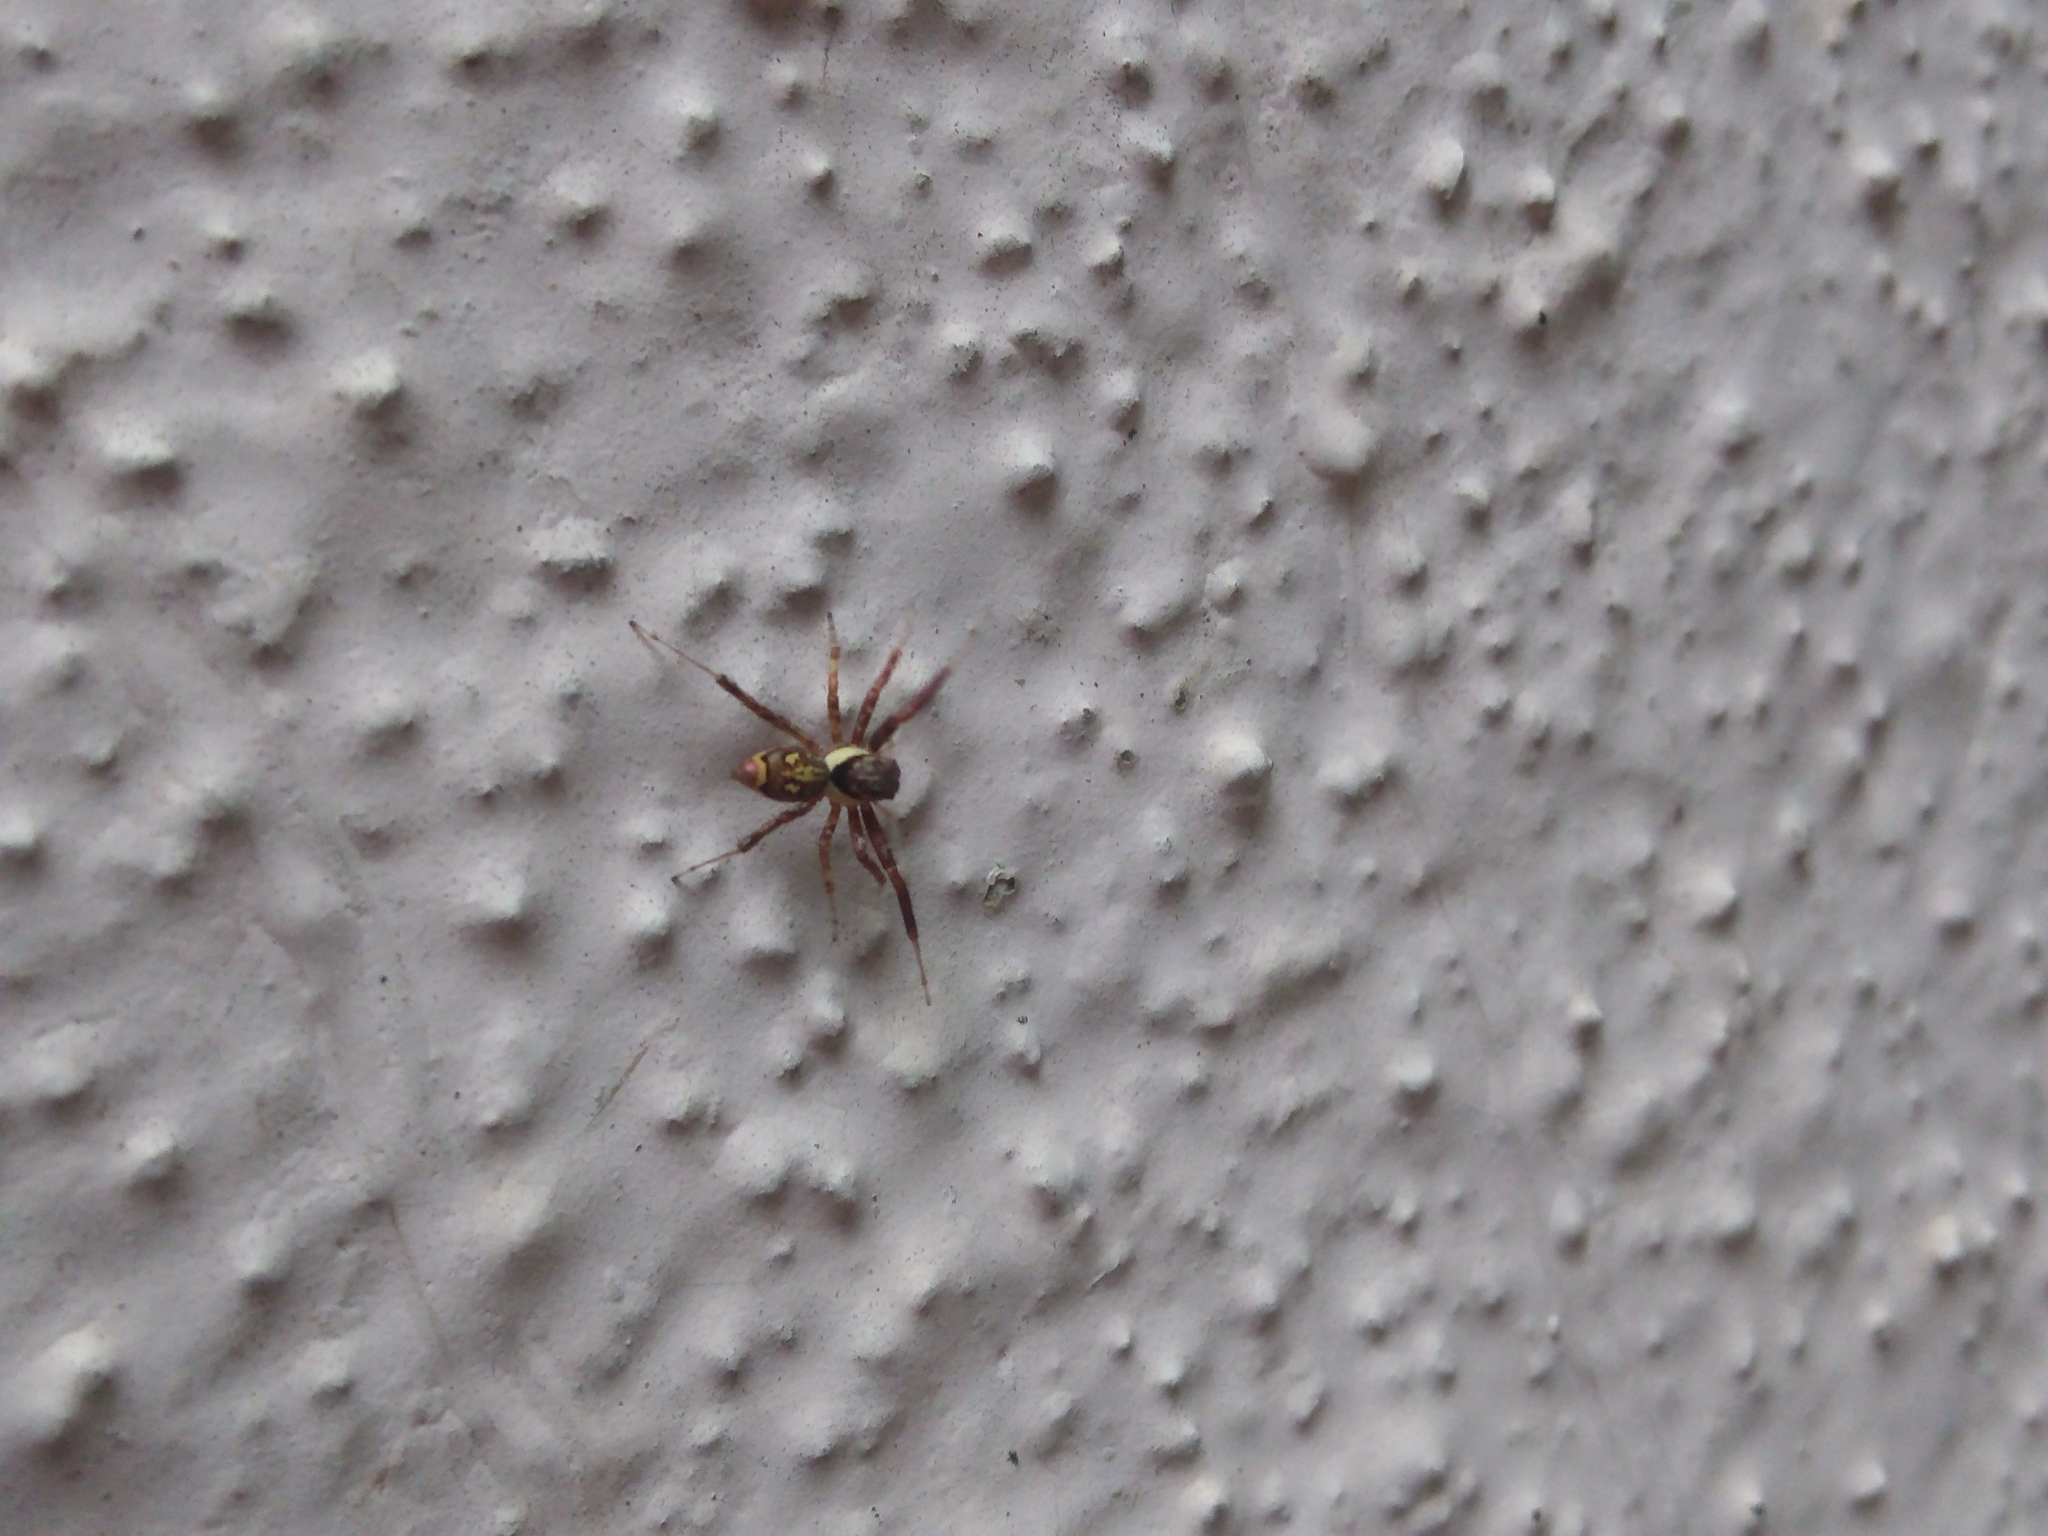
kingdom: Animalia
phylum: Arthropoda
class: Arachnida
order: Araneae
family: Salticidae
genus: Brettus
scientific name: Brettus cingulatus
